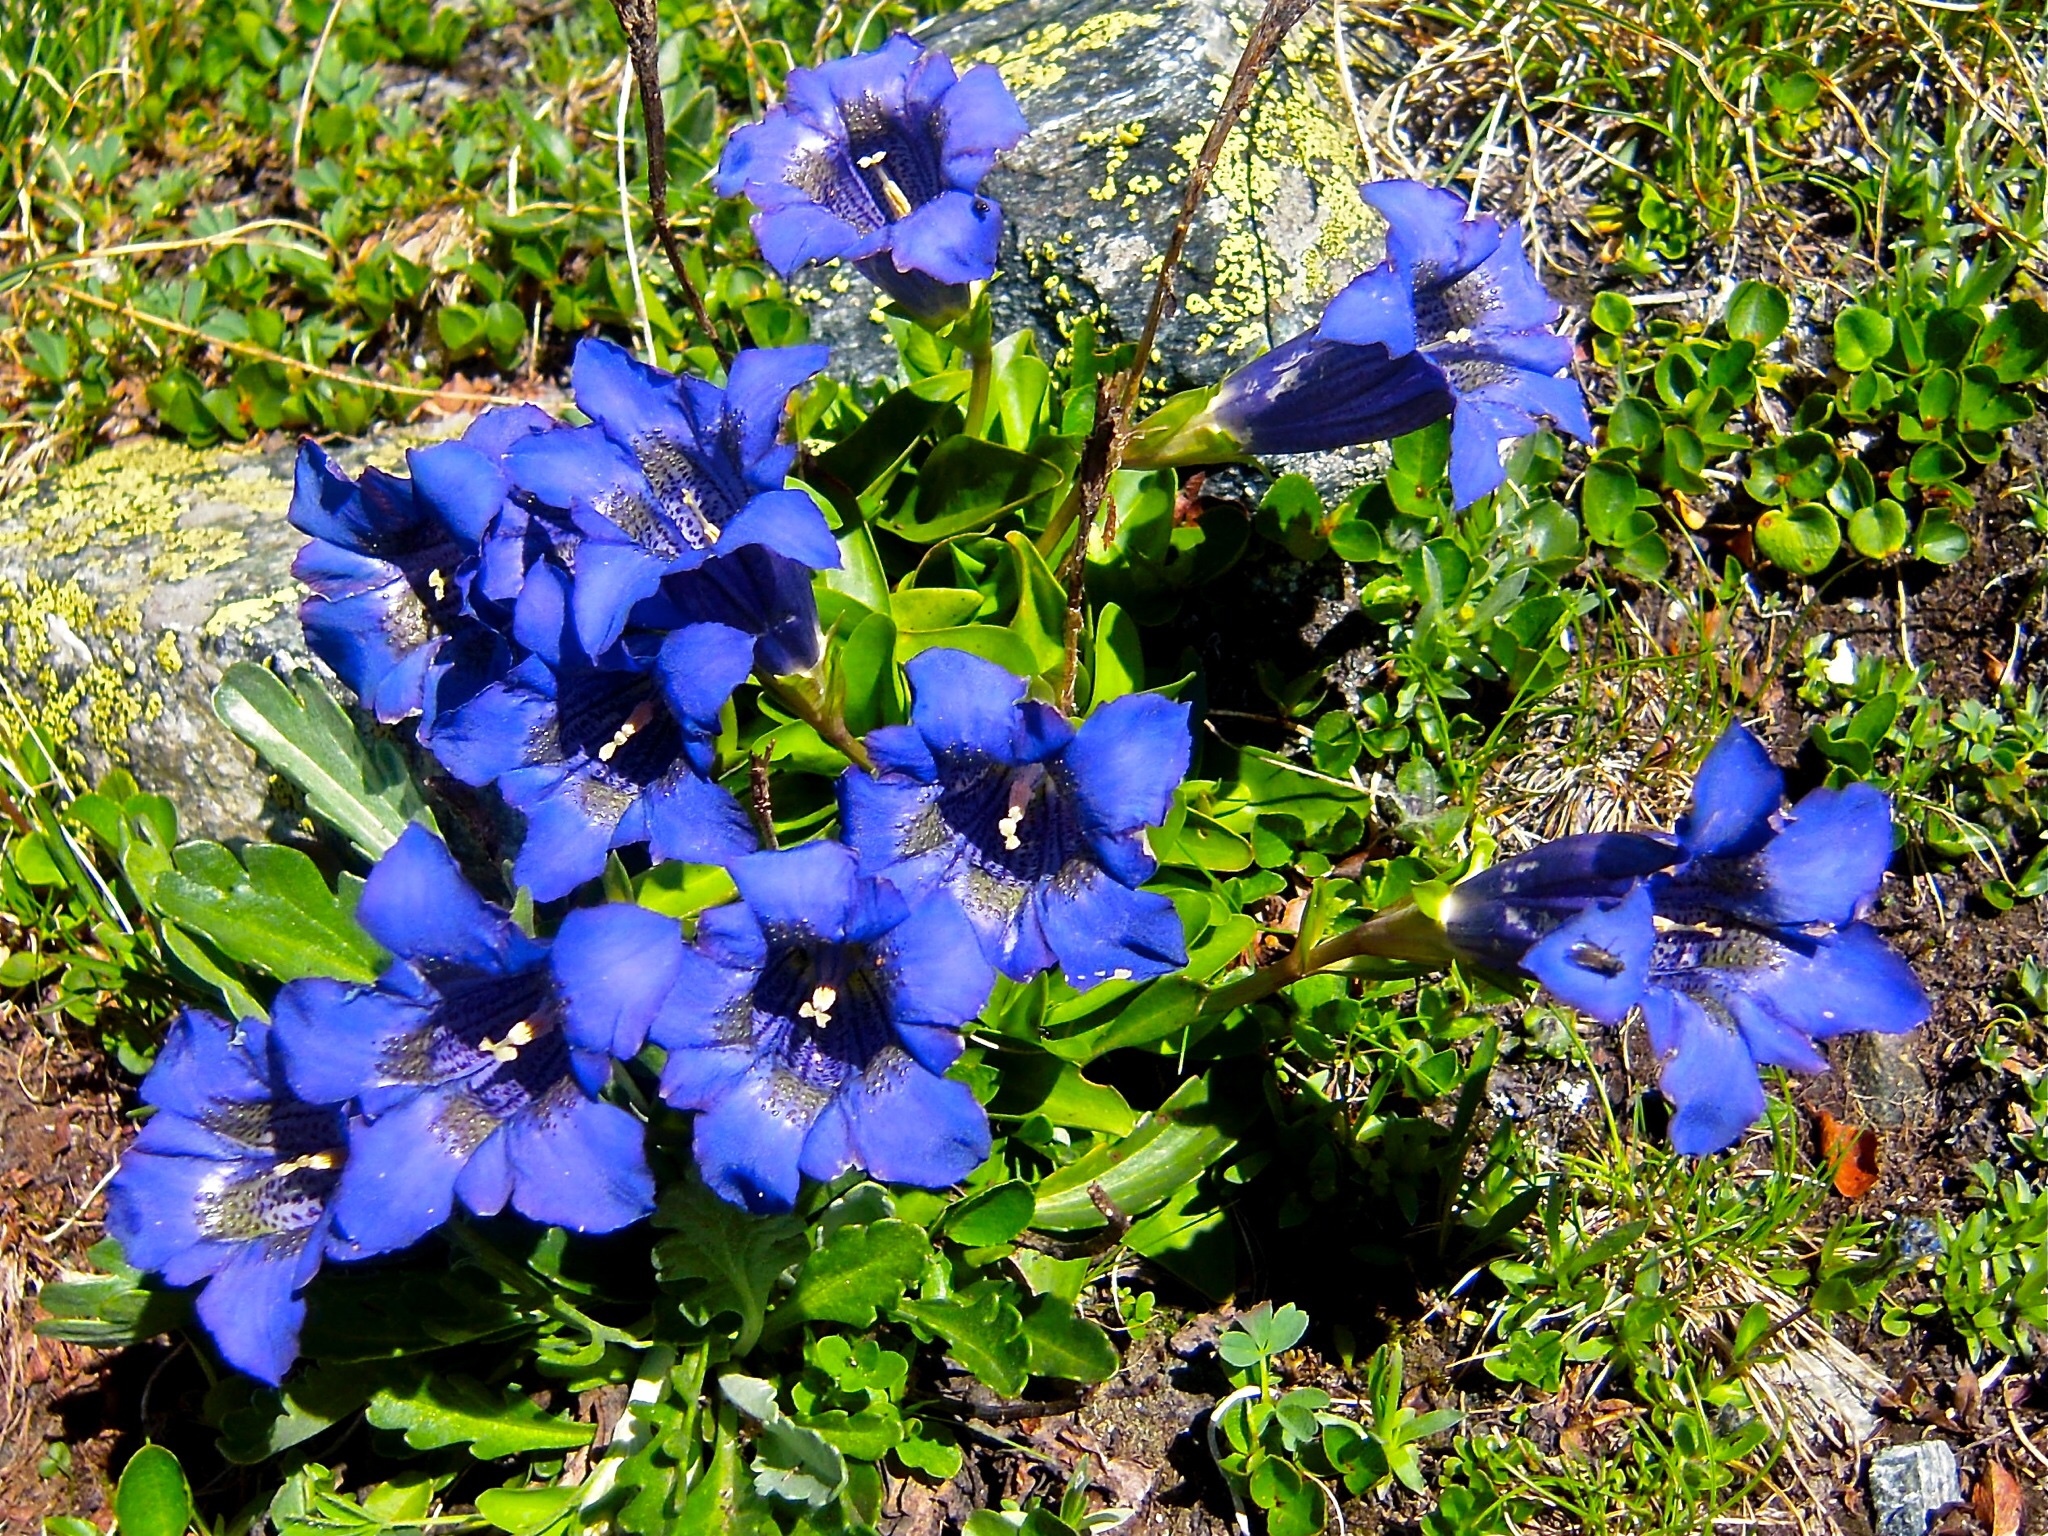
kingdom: Plantae
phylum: Tracheophyta
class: Magnoliopsida
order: Gentianales
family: Gentianaceae
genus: Gentiana
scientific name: Gentiana acaulis
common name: Trumpet gentian
